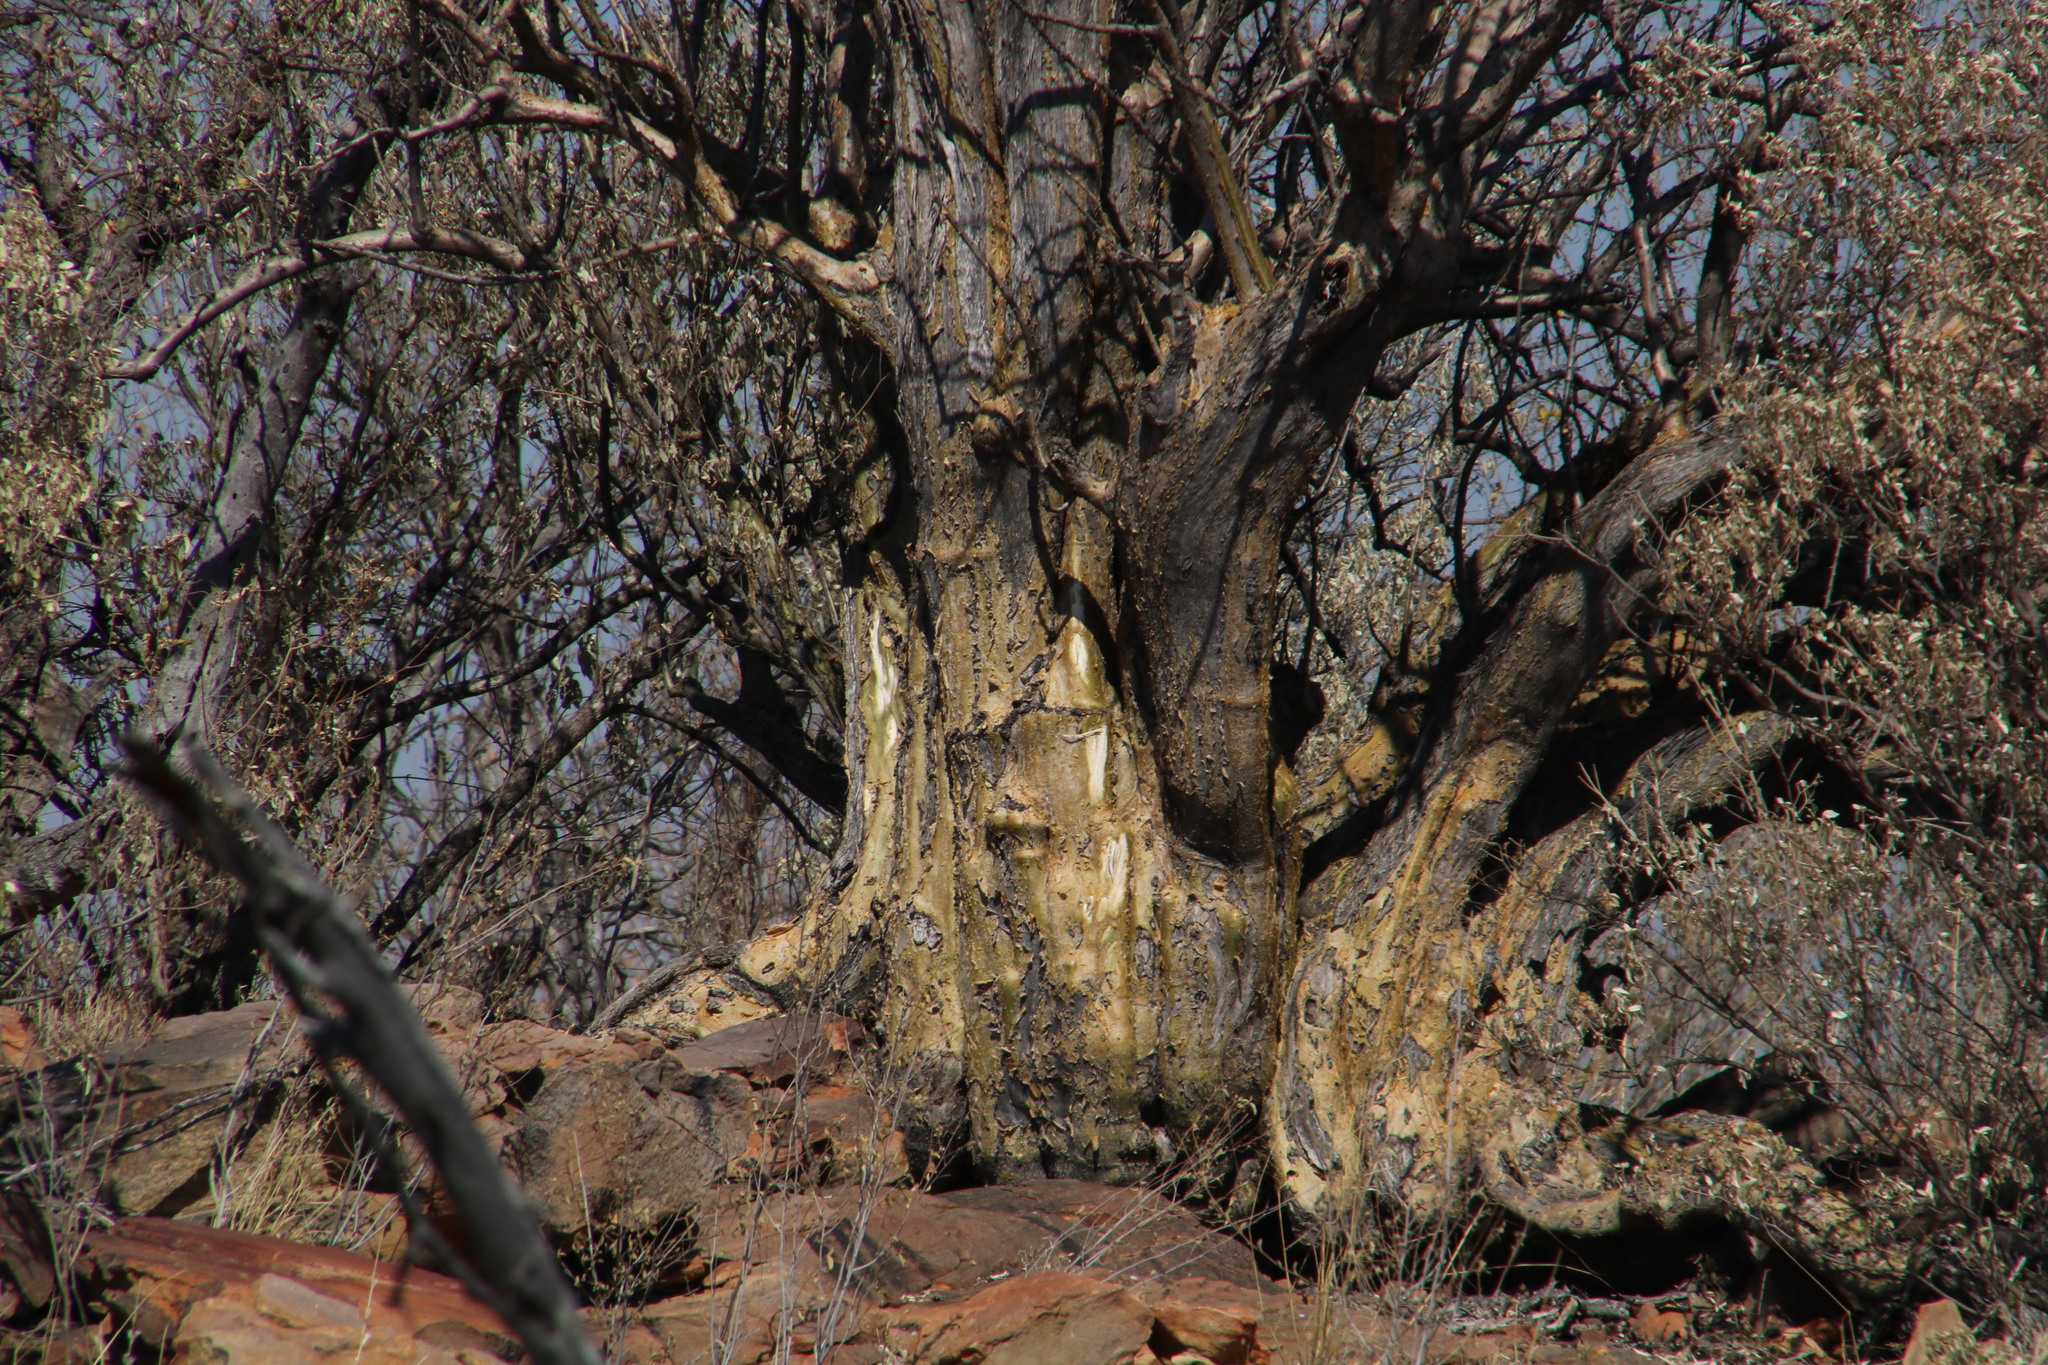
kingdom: Plantae
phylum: Tracheophyta
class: Magnoliopsida
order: Malvales
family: Malvaceae
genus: Sterculia
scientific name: Sterculia rogersii
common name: Star-chestnut
